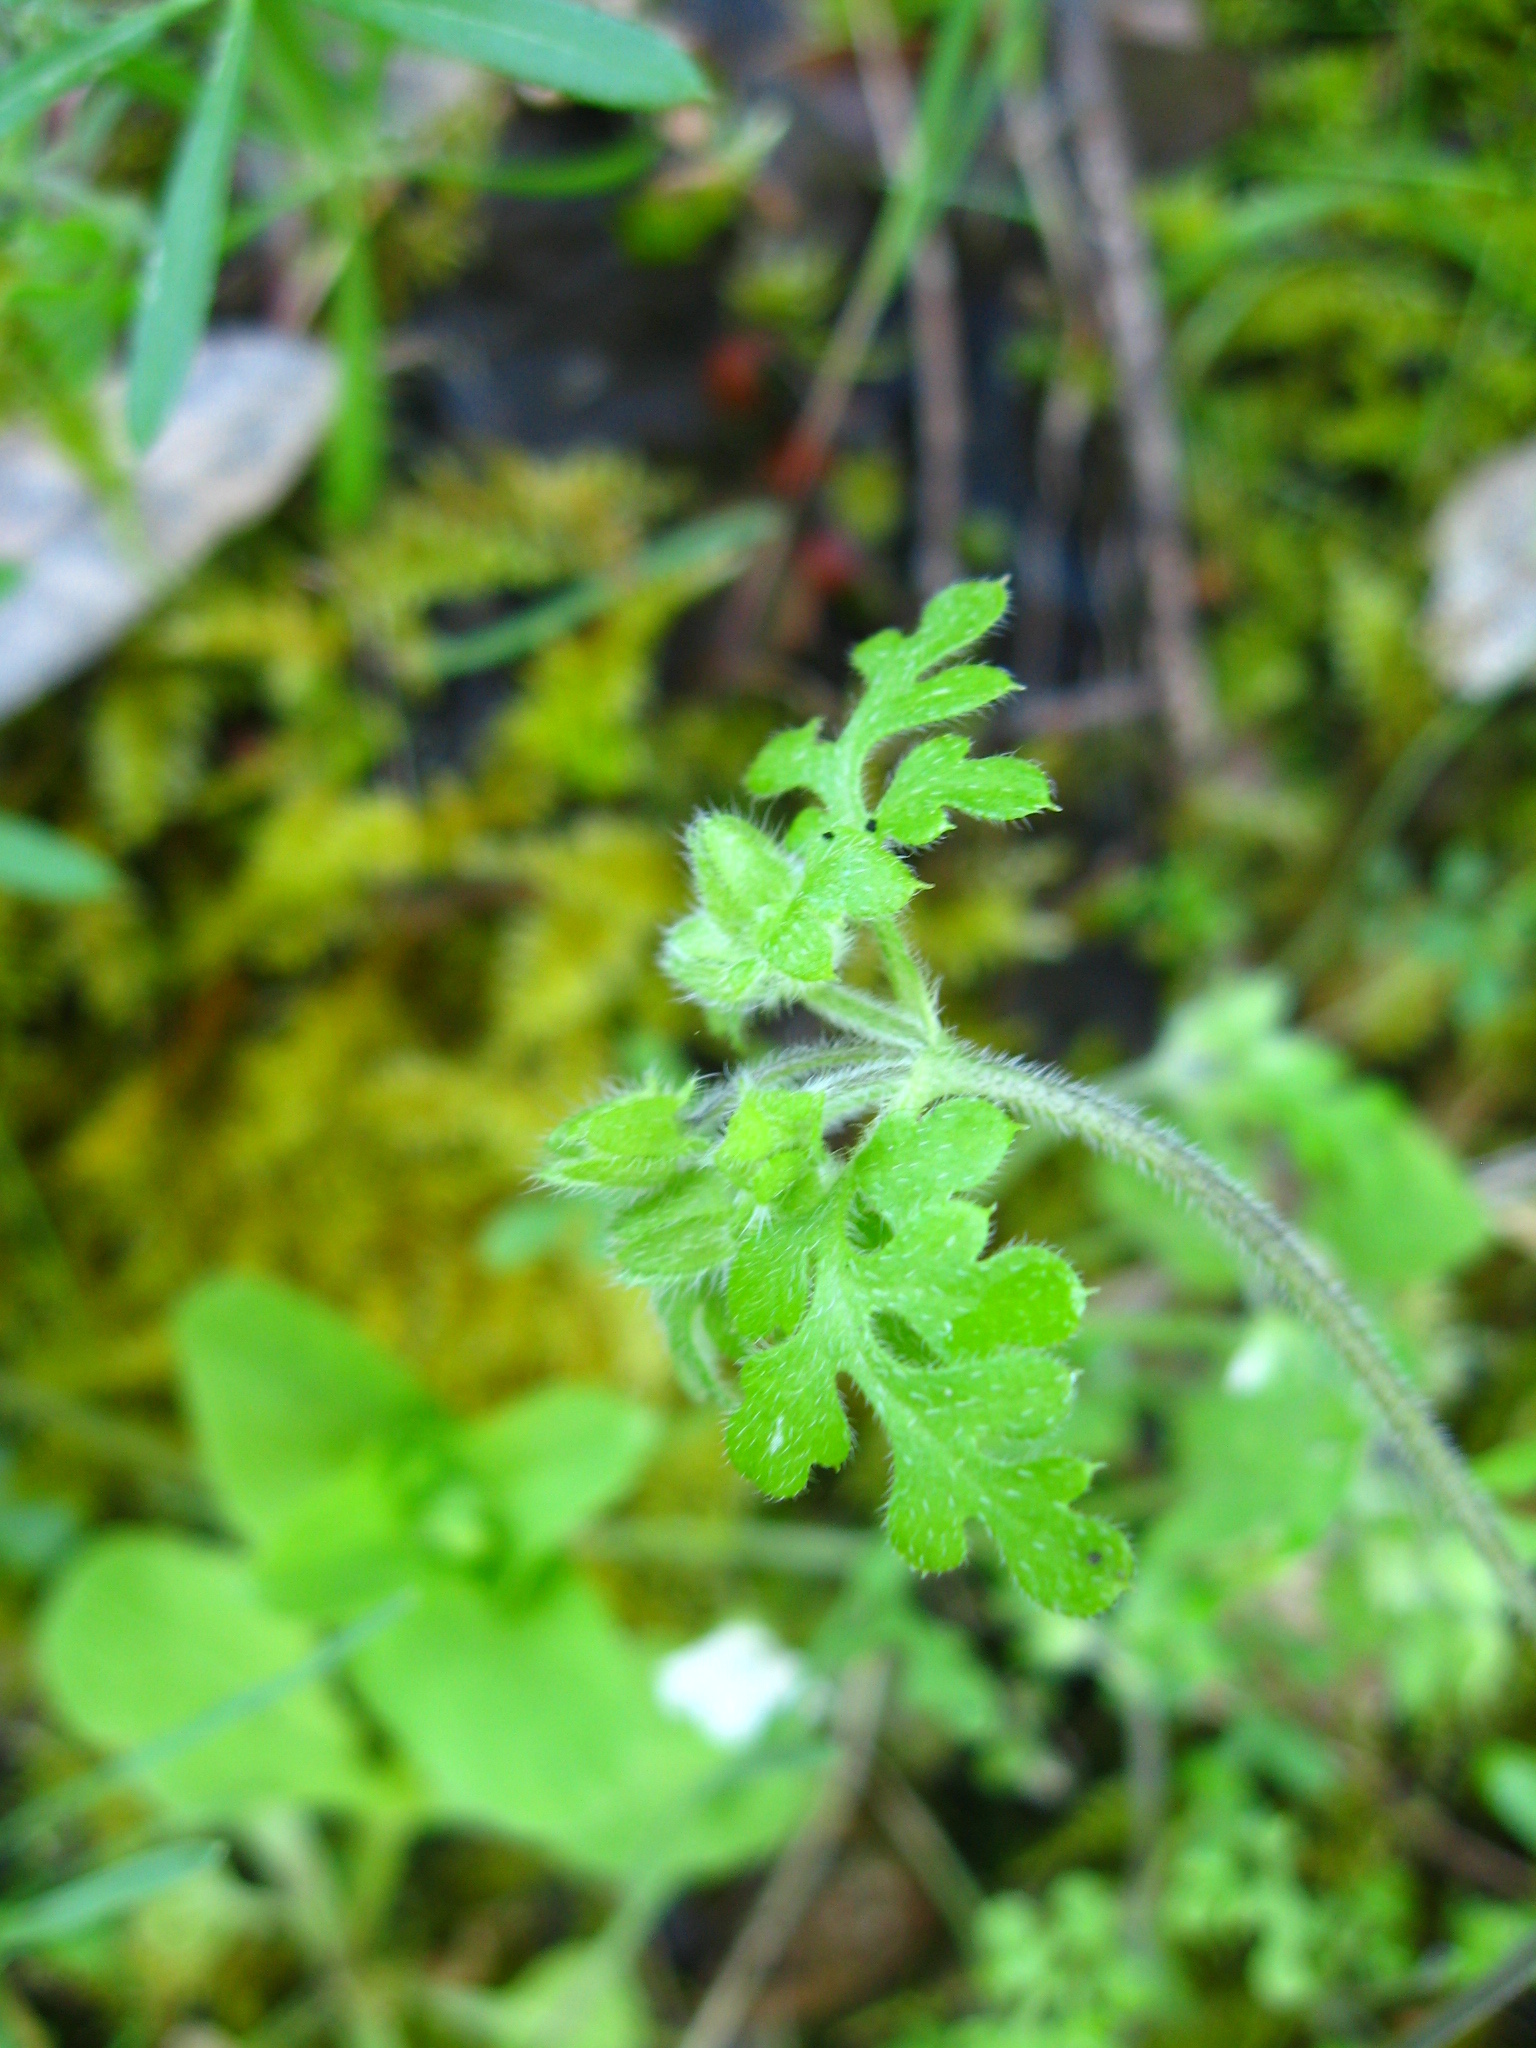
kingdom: Plantae
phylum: Tracheophyta
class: Magnoliopsida
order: Boraginales
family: Hydrophyllaceae
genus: Nemophila
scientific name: Nemophila heterophylla
